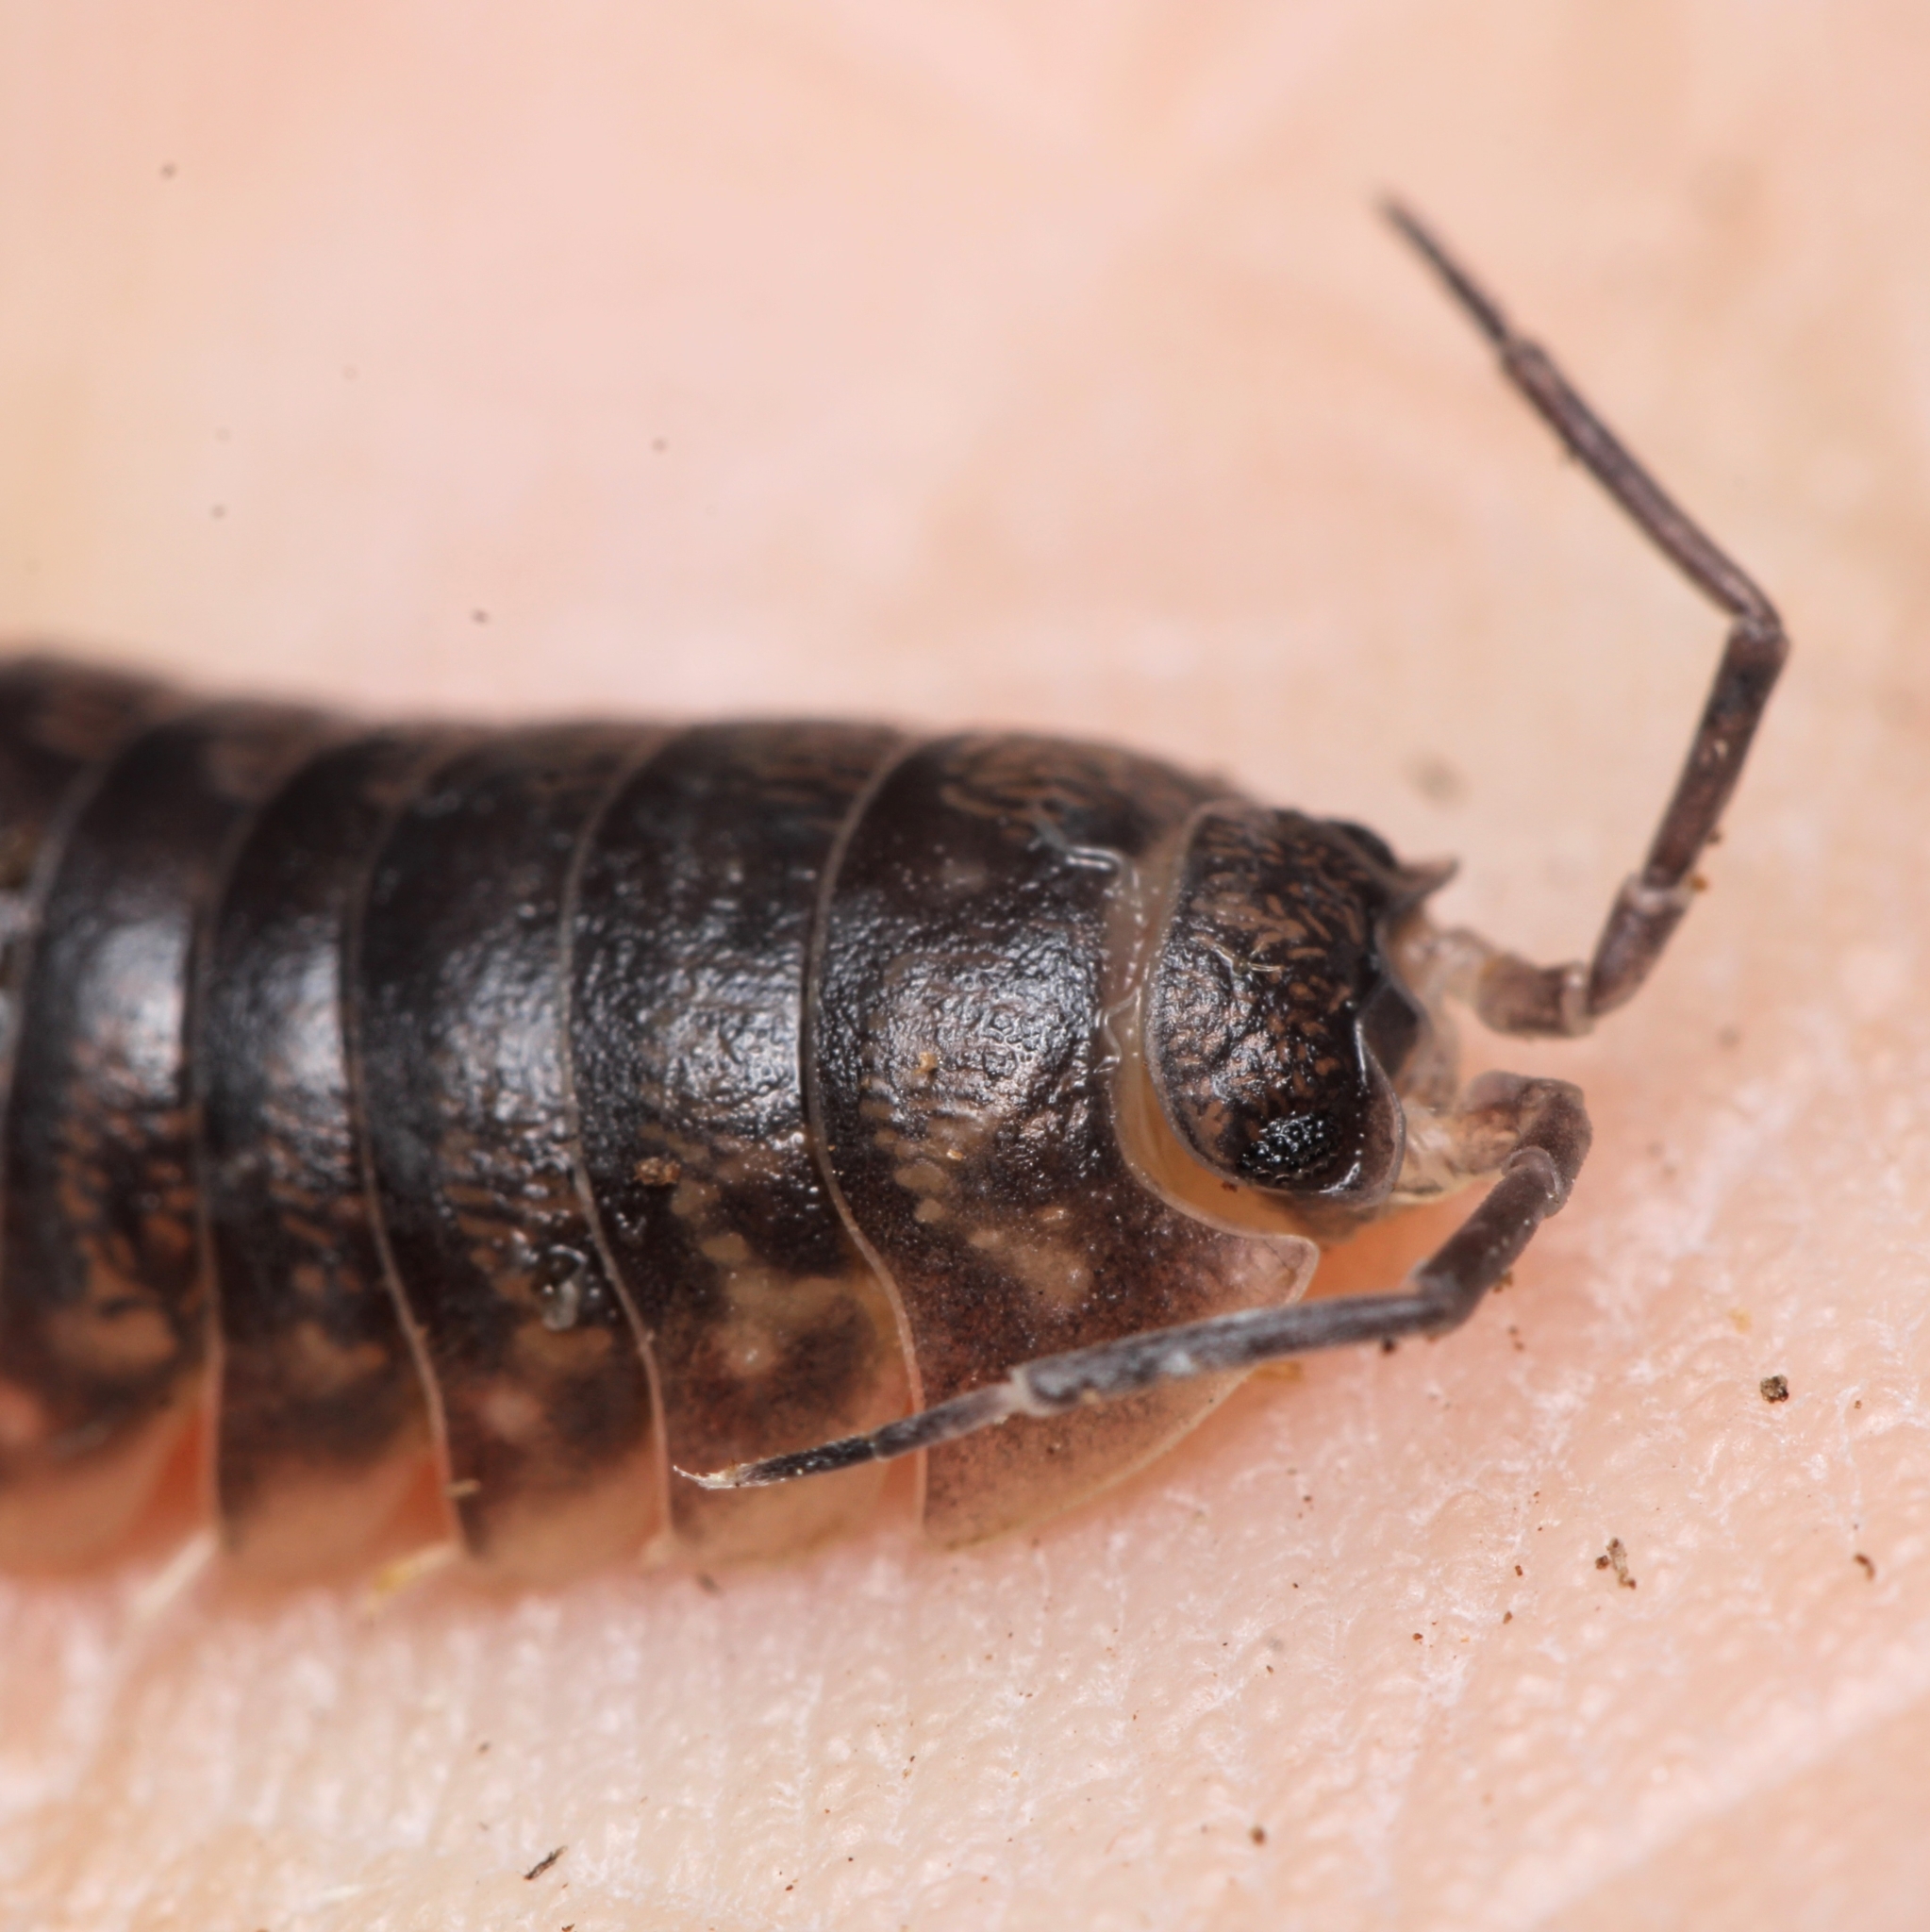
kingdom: Animalia
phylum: Arthropoda
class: Malacostraca
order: Isopoda
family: Cylisticidae
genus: Cylisticus
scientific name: Cylisticus convexus
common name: Curly woodlouse
